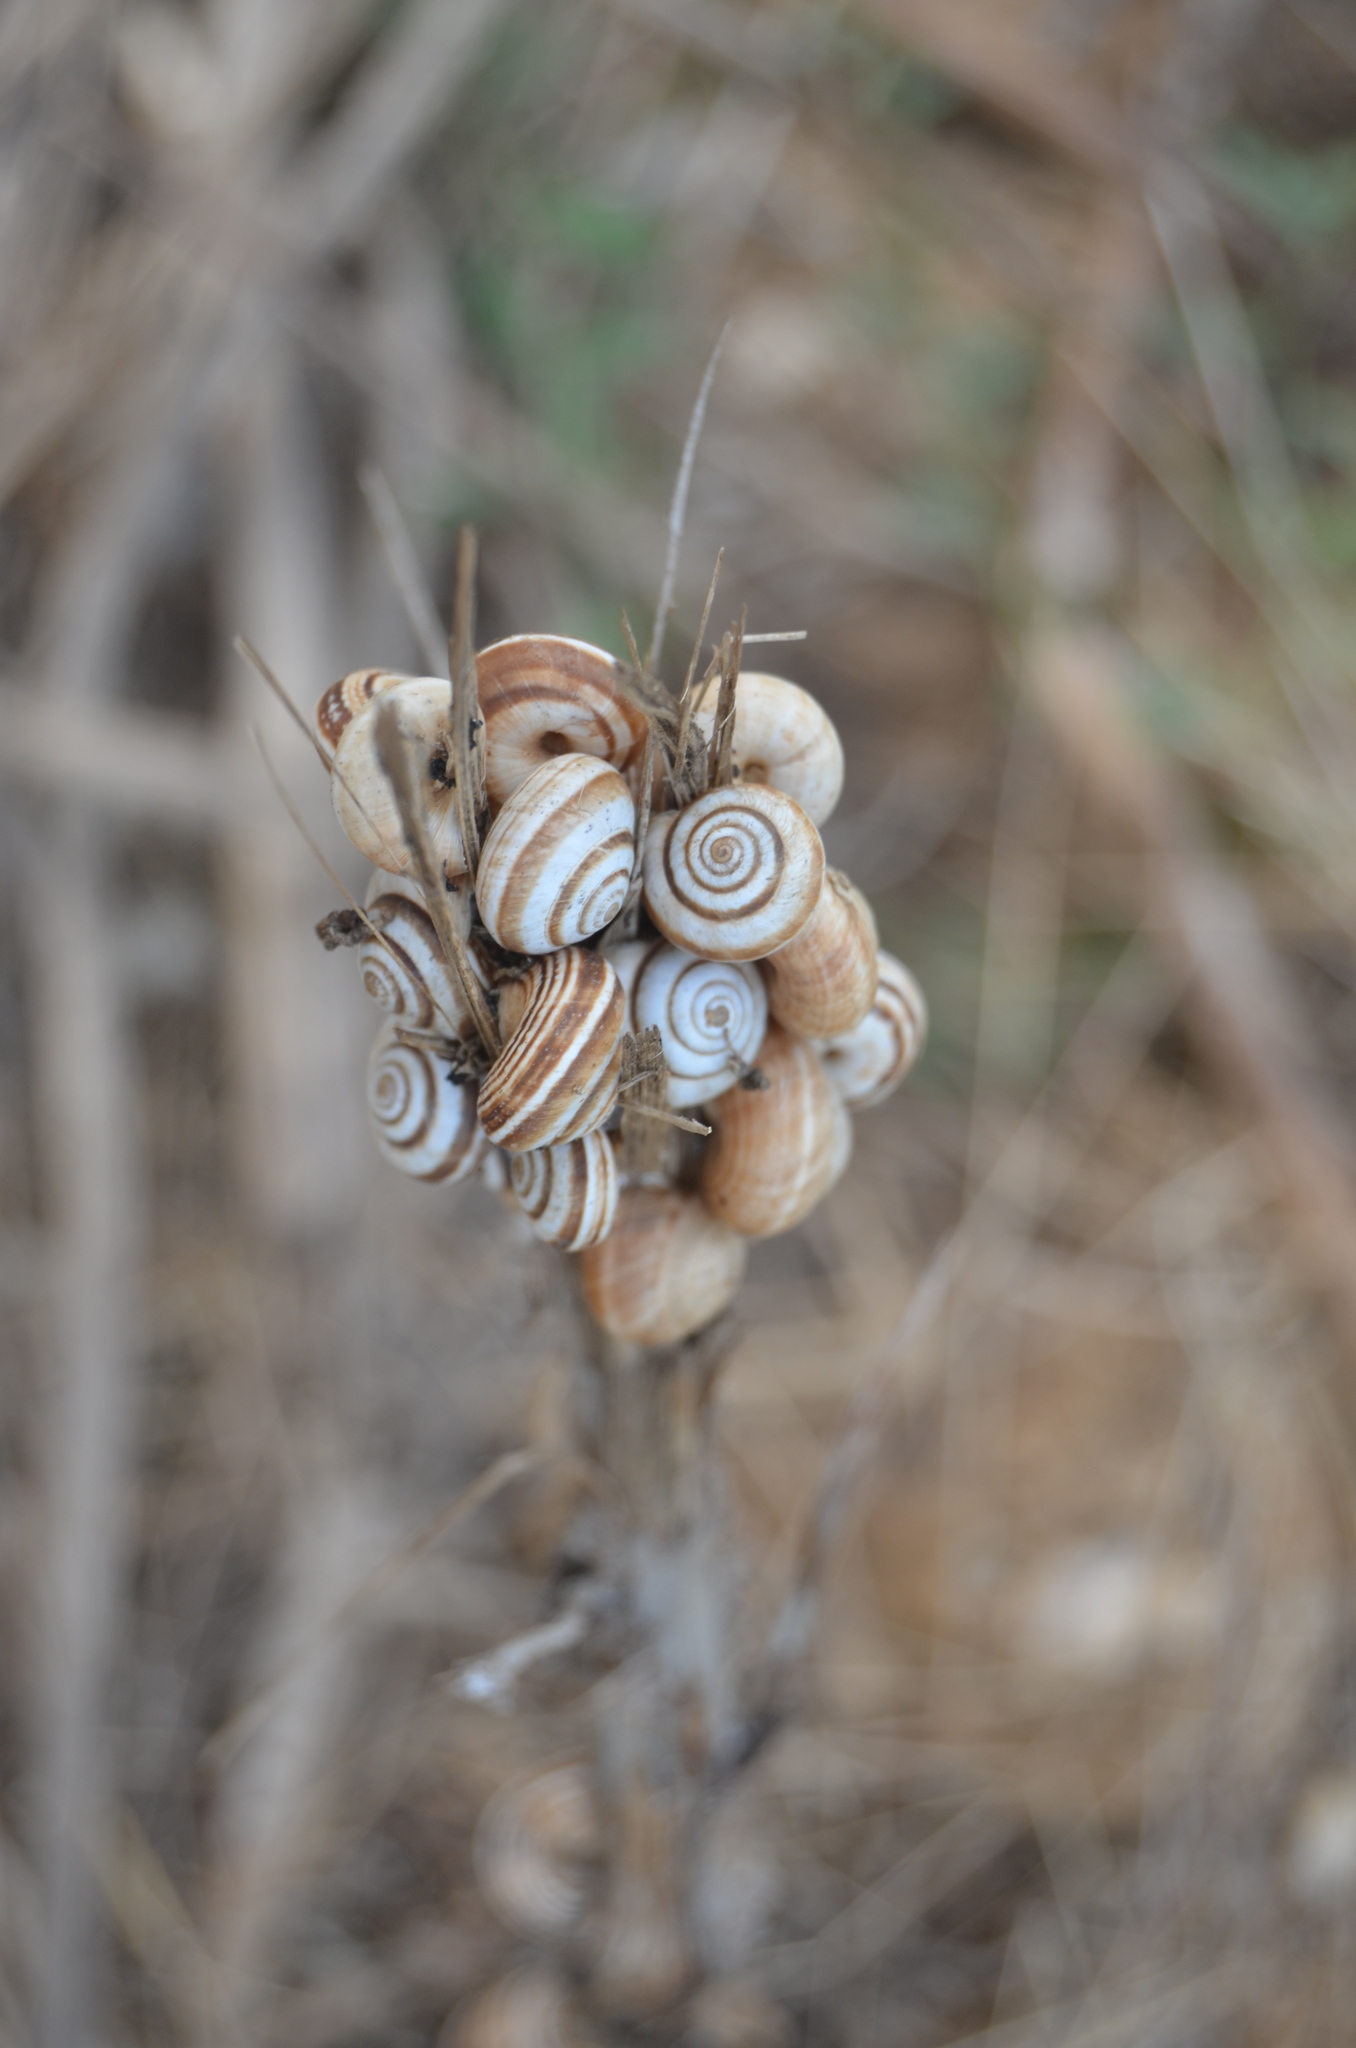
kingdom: Animalia
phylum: Mollusca
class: Gastropoda
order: Stylommatophora
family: Geomitridae
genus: Cernuella
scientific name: Cernuella virgata
